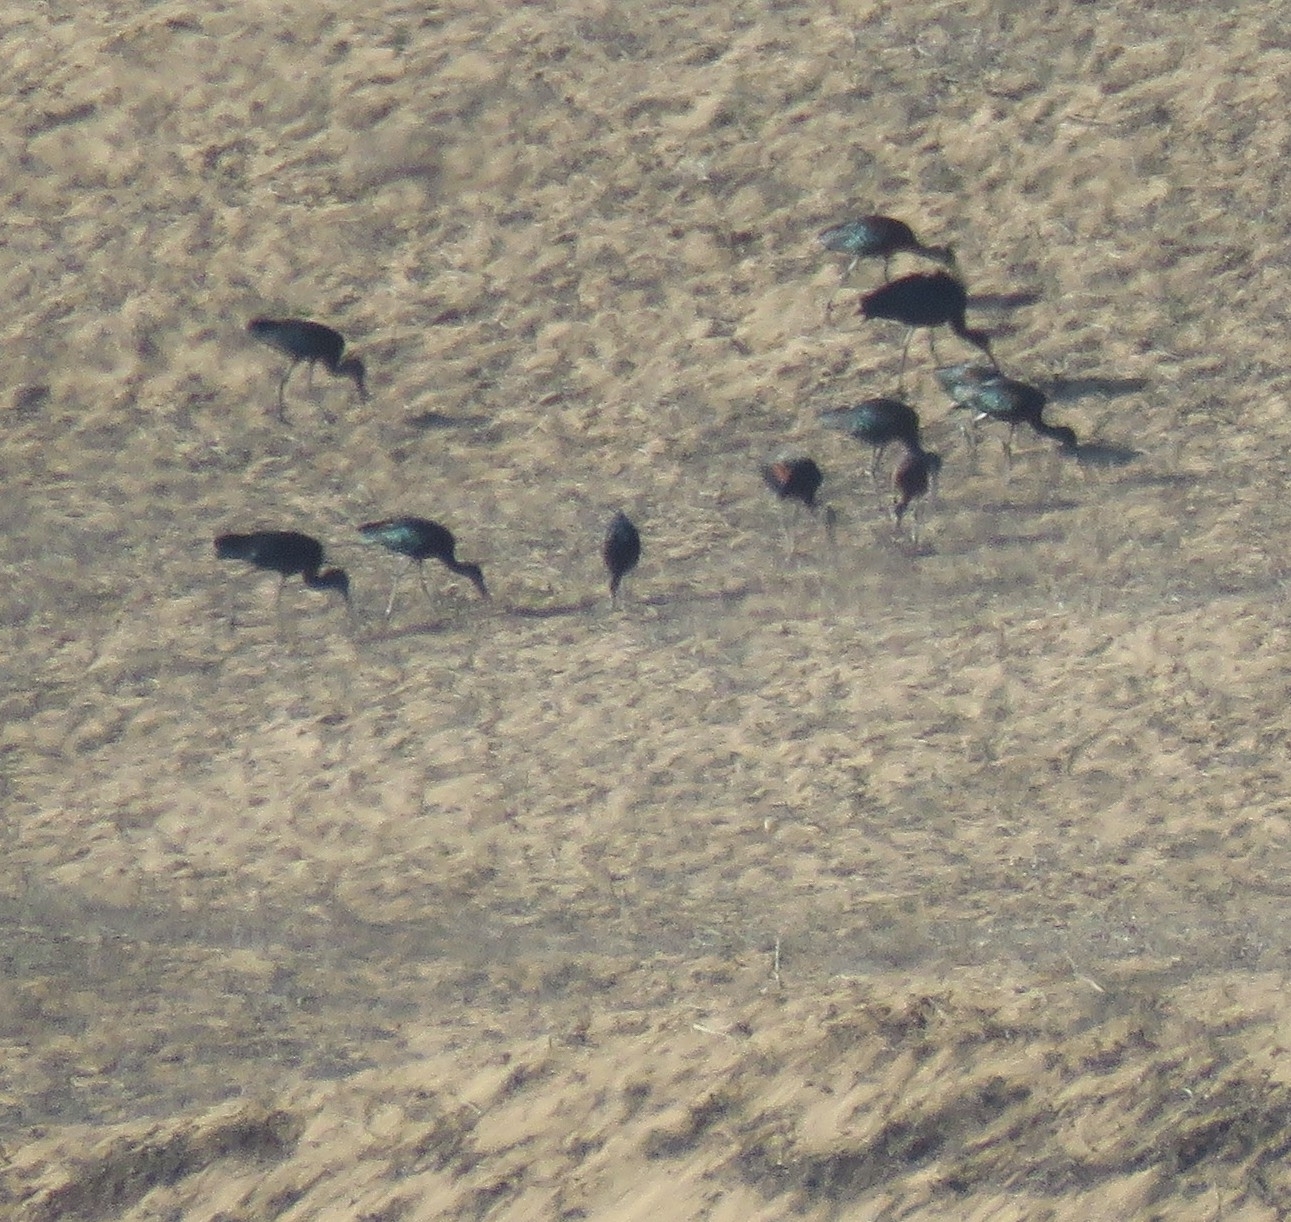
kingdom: Animalia
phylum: Chordata
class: Aves
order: Pelecaniformes
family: Threskiornithidae
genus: Plegadis
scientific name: Plegadis falcinellus
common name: Glossy ibis
